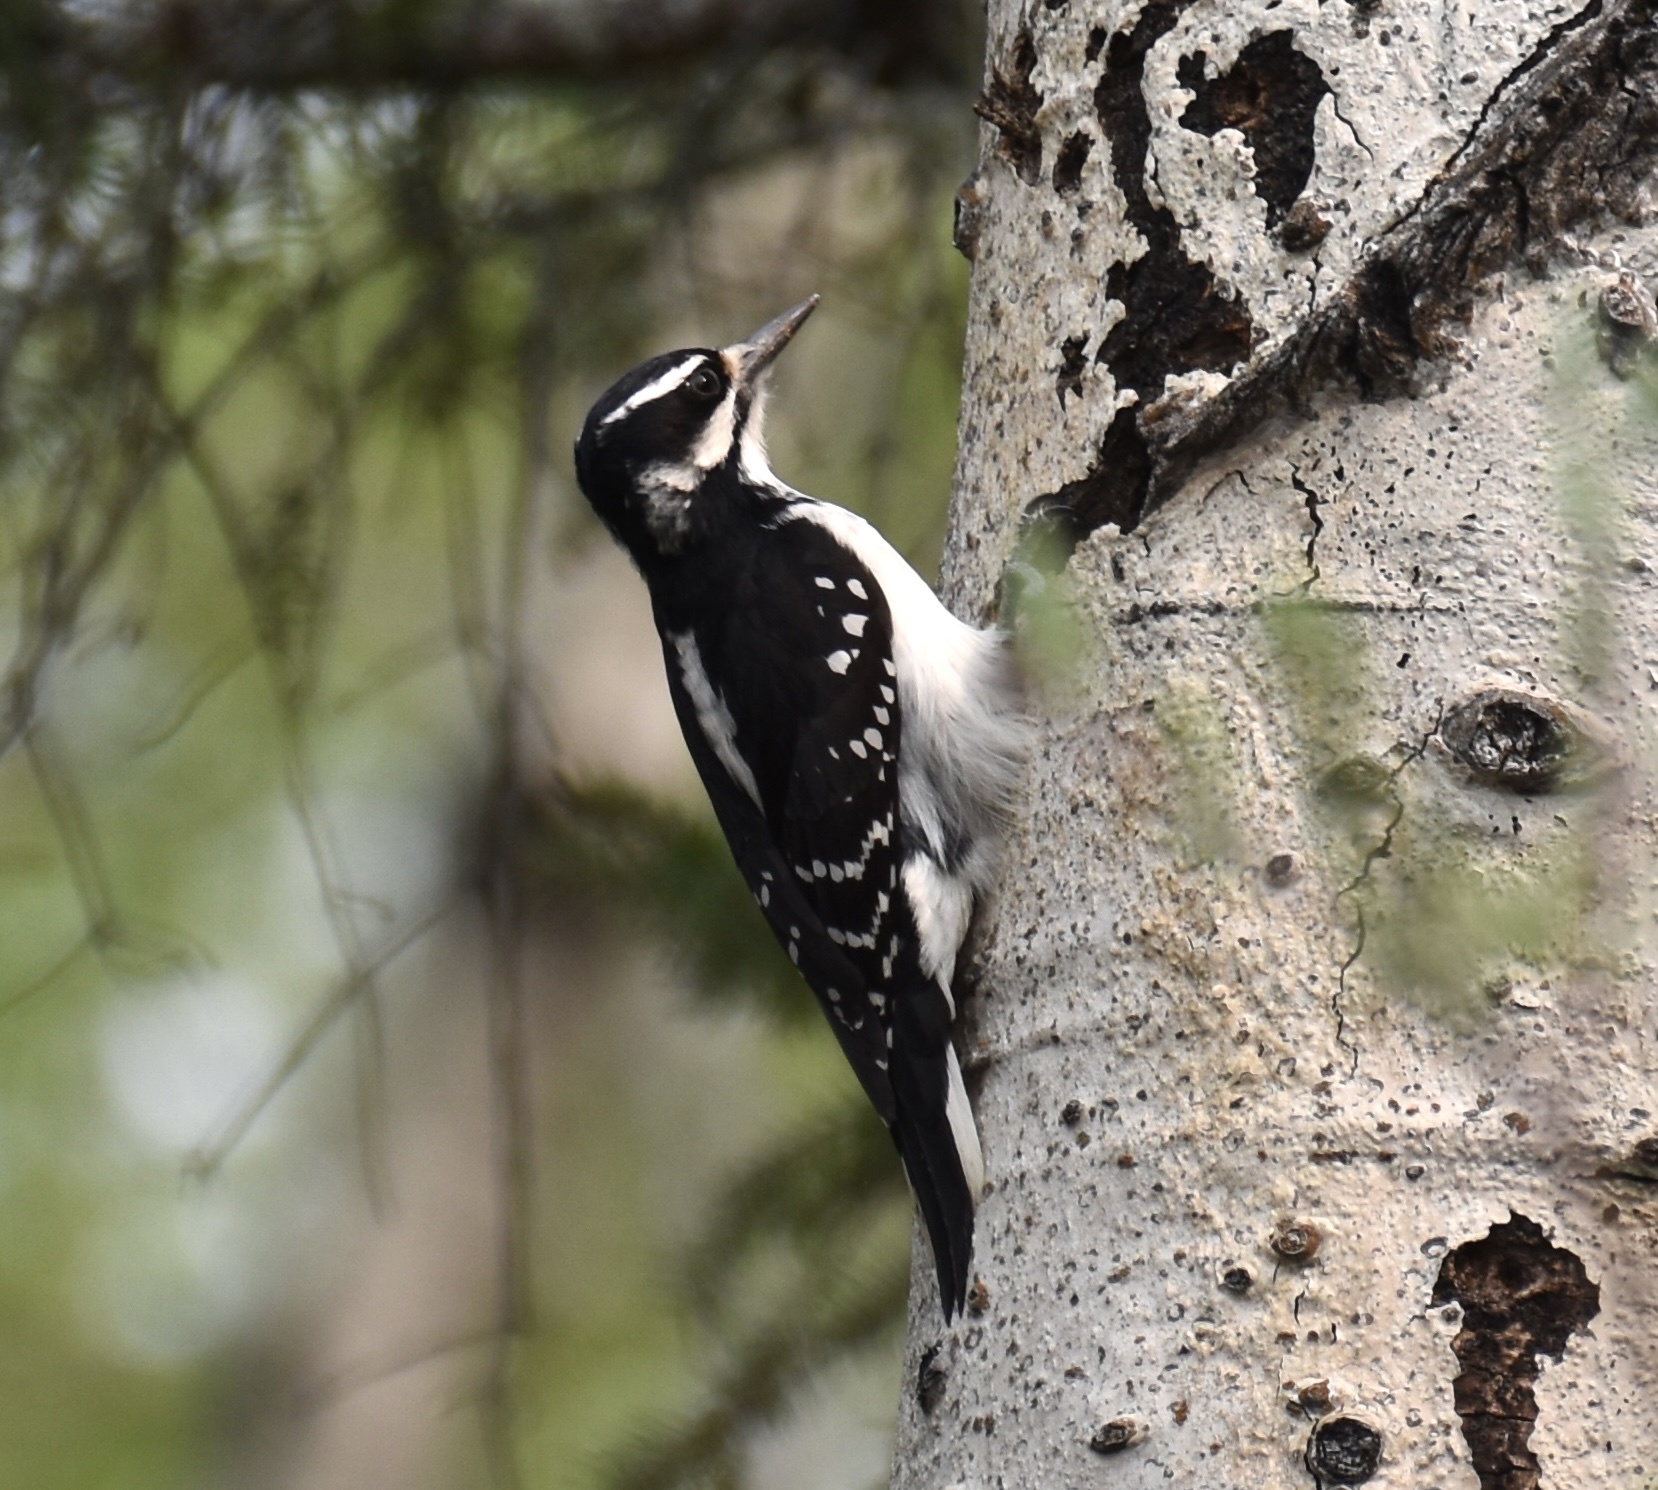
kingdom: Animalia
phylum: Chordata
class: Aves
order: Piciformes
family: Picidae
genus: Leuconotopicus
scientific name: Leuconotopicus villosus
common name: Hairy woodpecker
